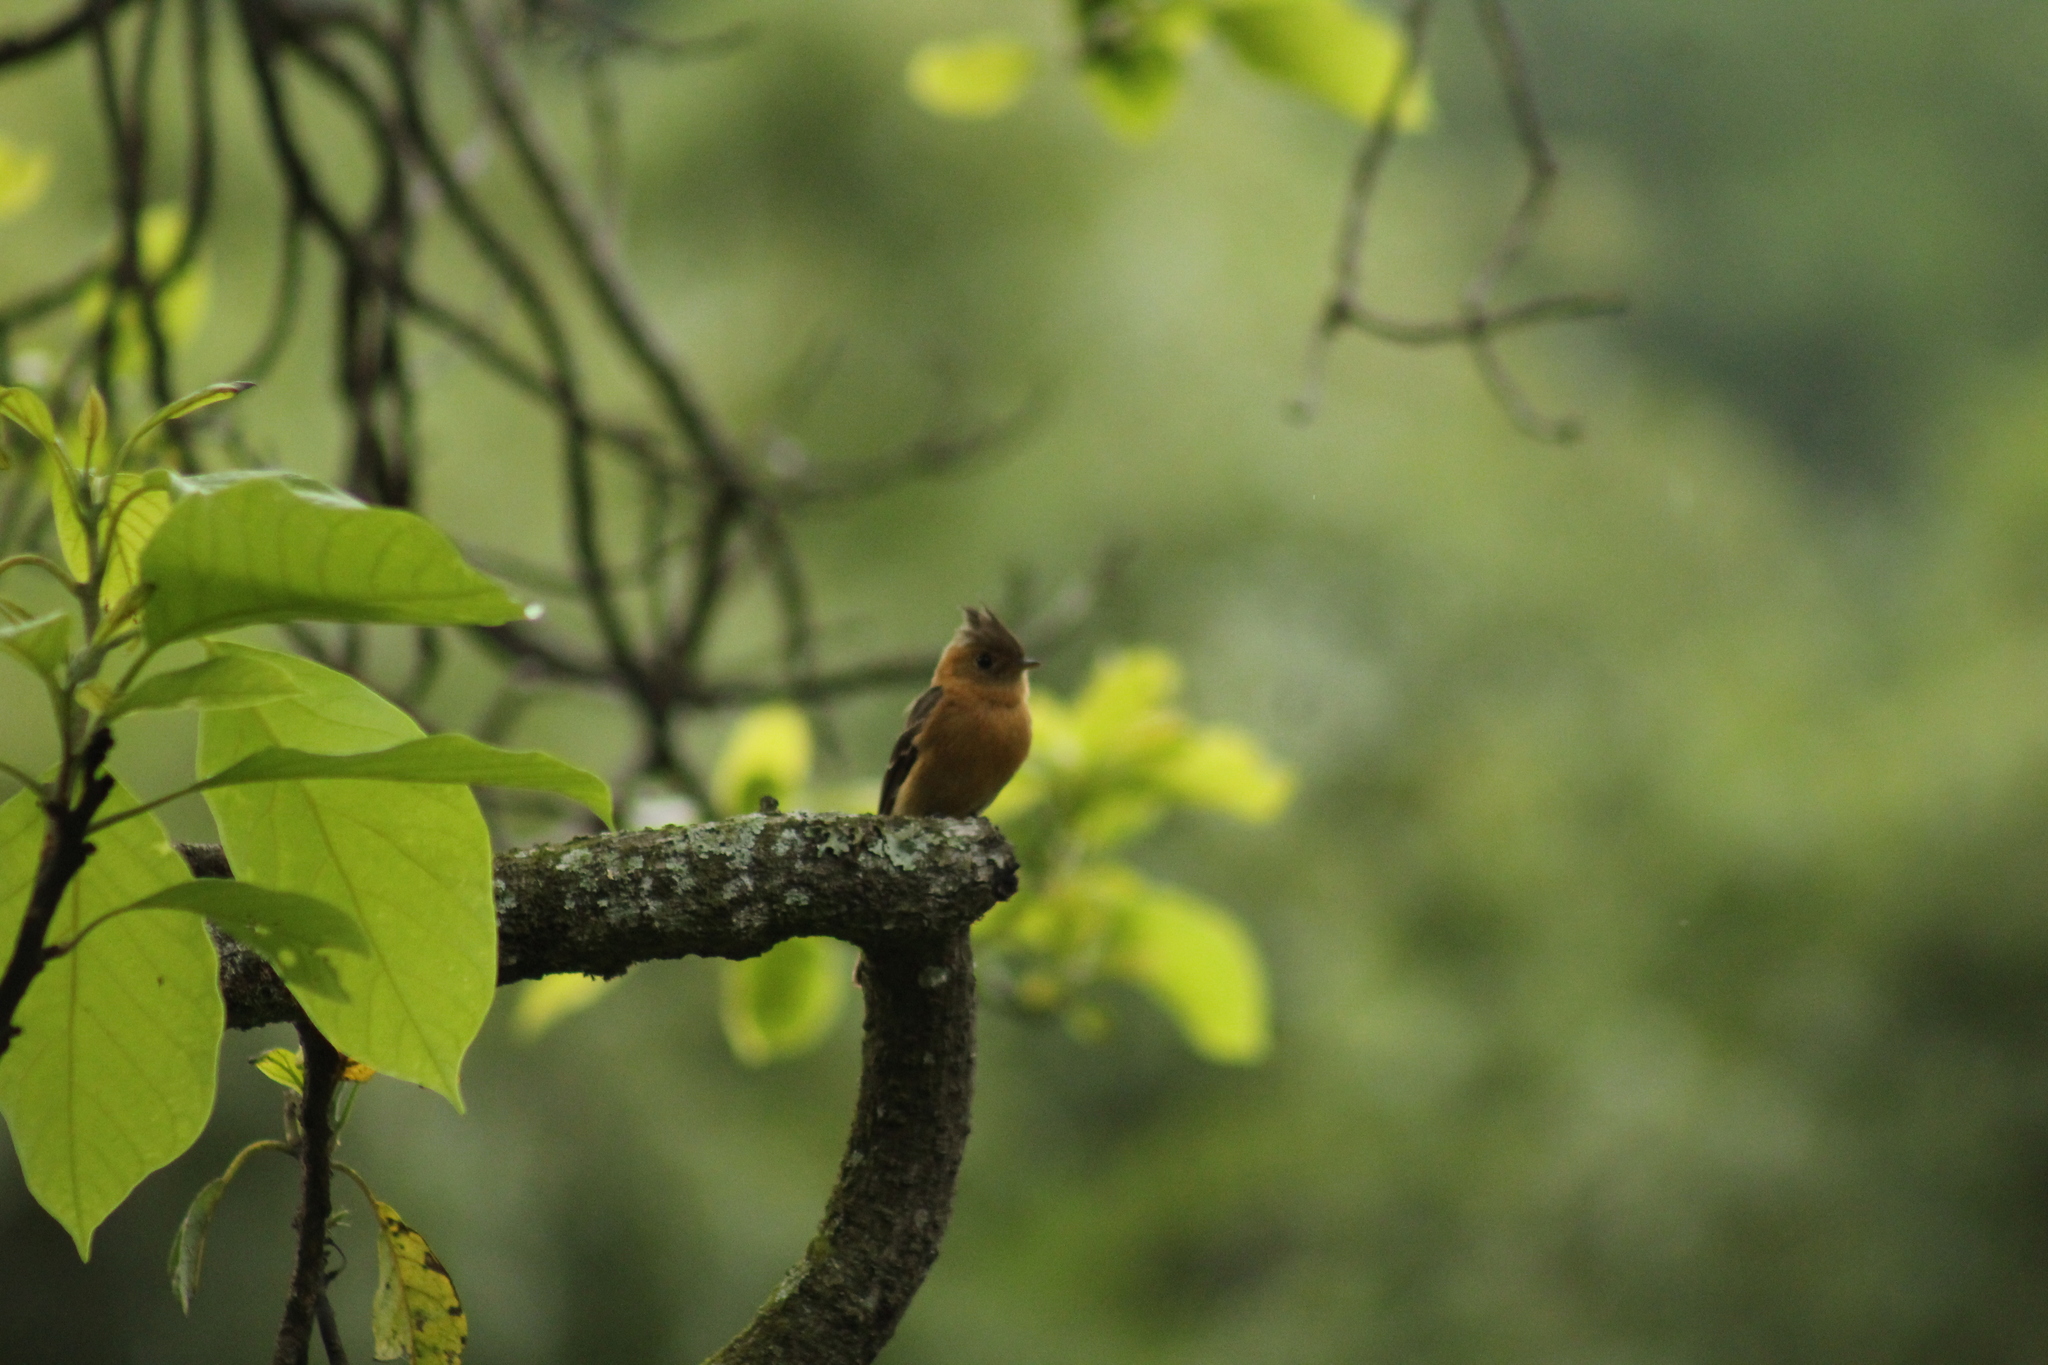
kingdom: Animalia
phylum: Chordata
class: Aves
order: Passeriformes
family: Tyrannidae
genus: Mitrephanes
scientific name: Mitrephanes phaeocercus
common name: Northern tufted flycatcher
